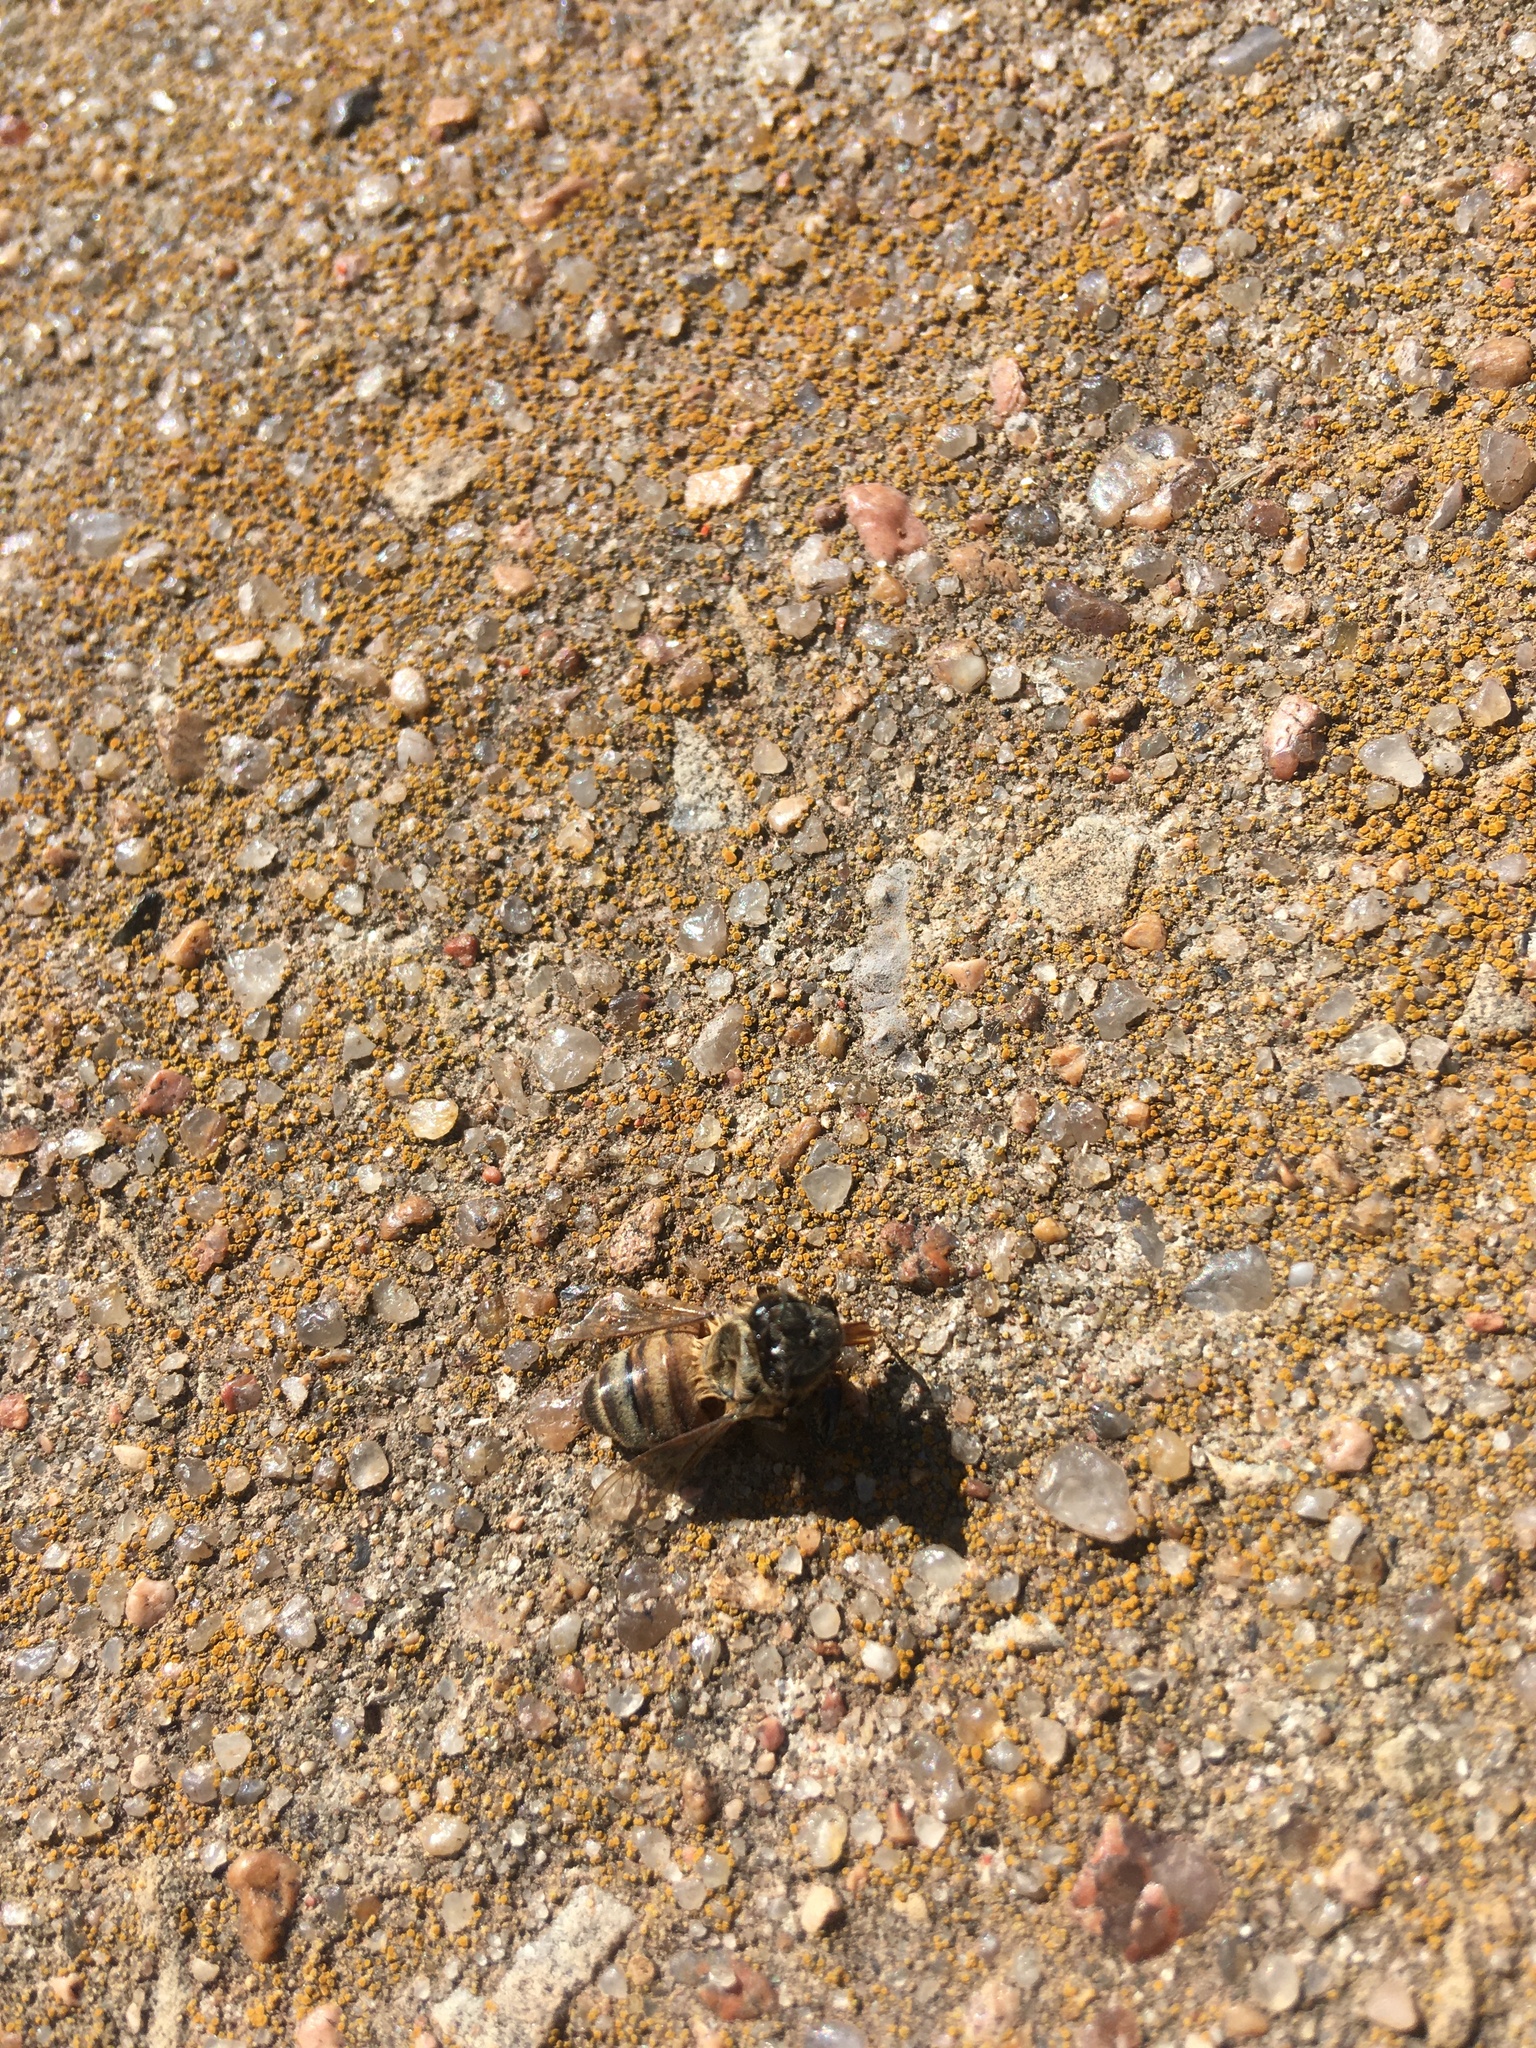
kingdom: Animalia
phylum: Arthropoda
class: Insecta
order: Hymenoptera
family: Apidae
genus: Apis
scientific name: Apis mellifera
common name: Honey bee
